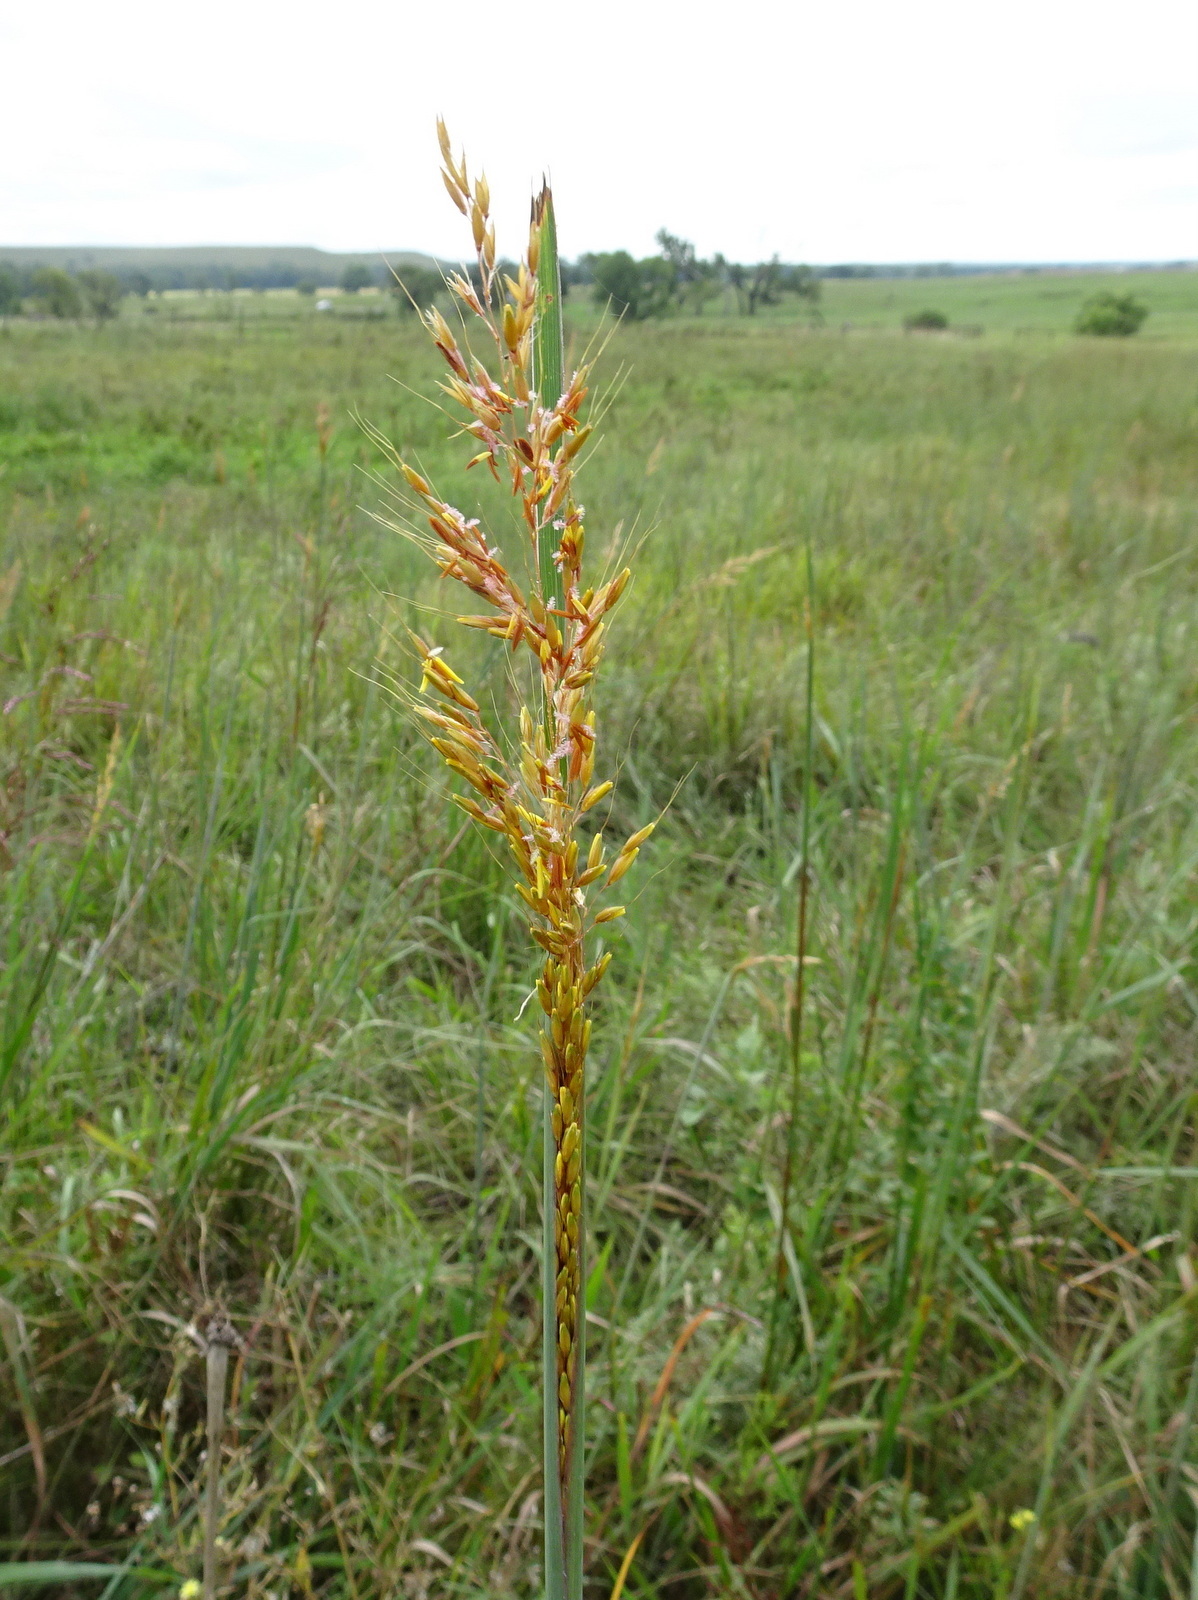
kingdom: Plantae
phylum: Tracheophyta
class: Liliopsida
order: Poales
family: Poaceae
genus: Sorghastrum
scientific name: Sorghastrum nutans
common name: Indian grass
